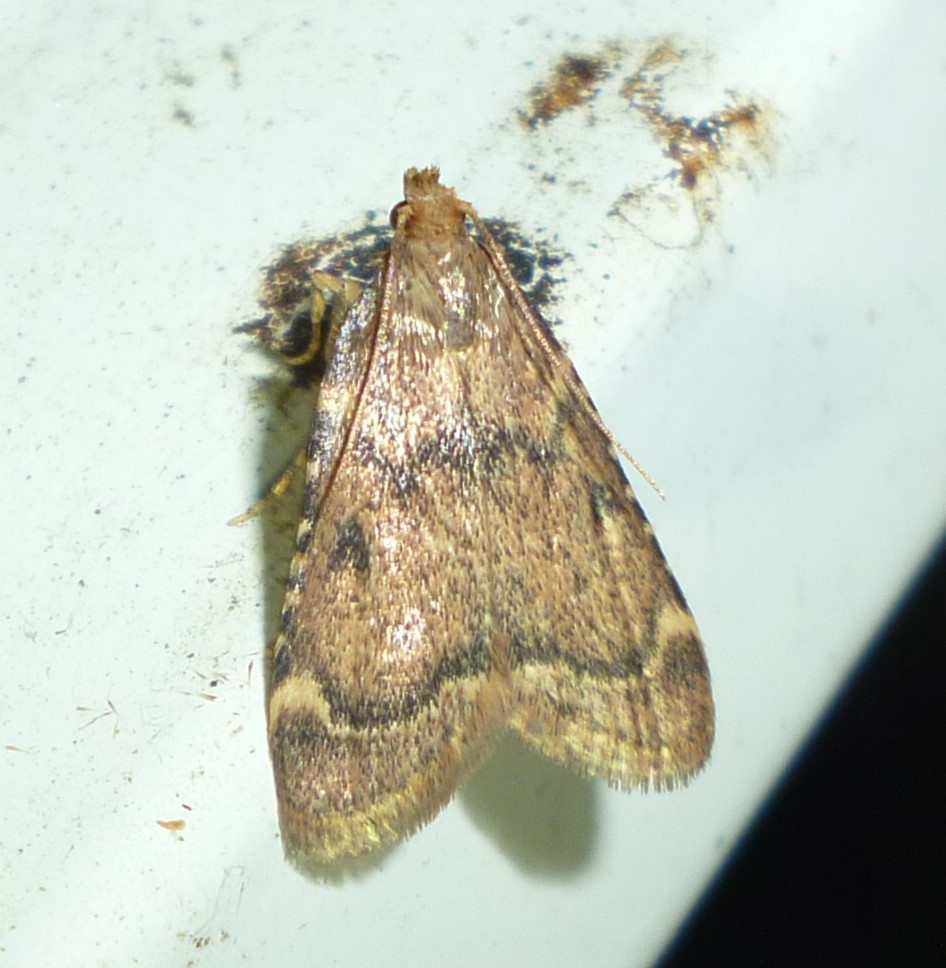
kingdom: Animalia
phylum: Arthropoda
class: Insecta
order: Lepidoptera
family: Pyralidae
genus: Aglossa
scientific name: Aglossa disciferalis
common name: Pink-masked pyralid moth
